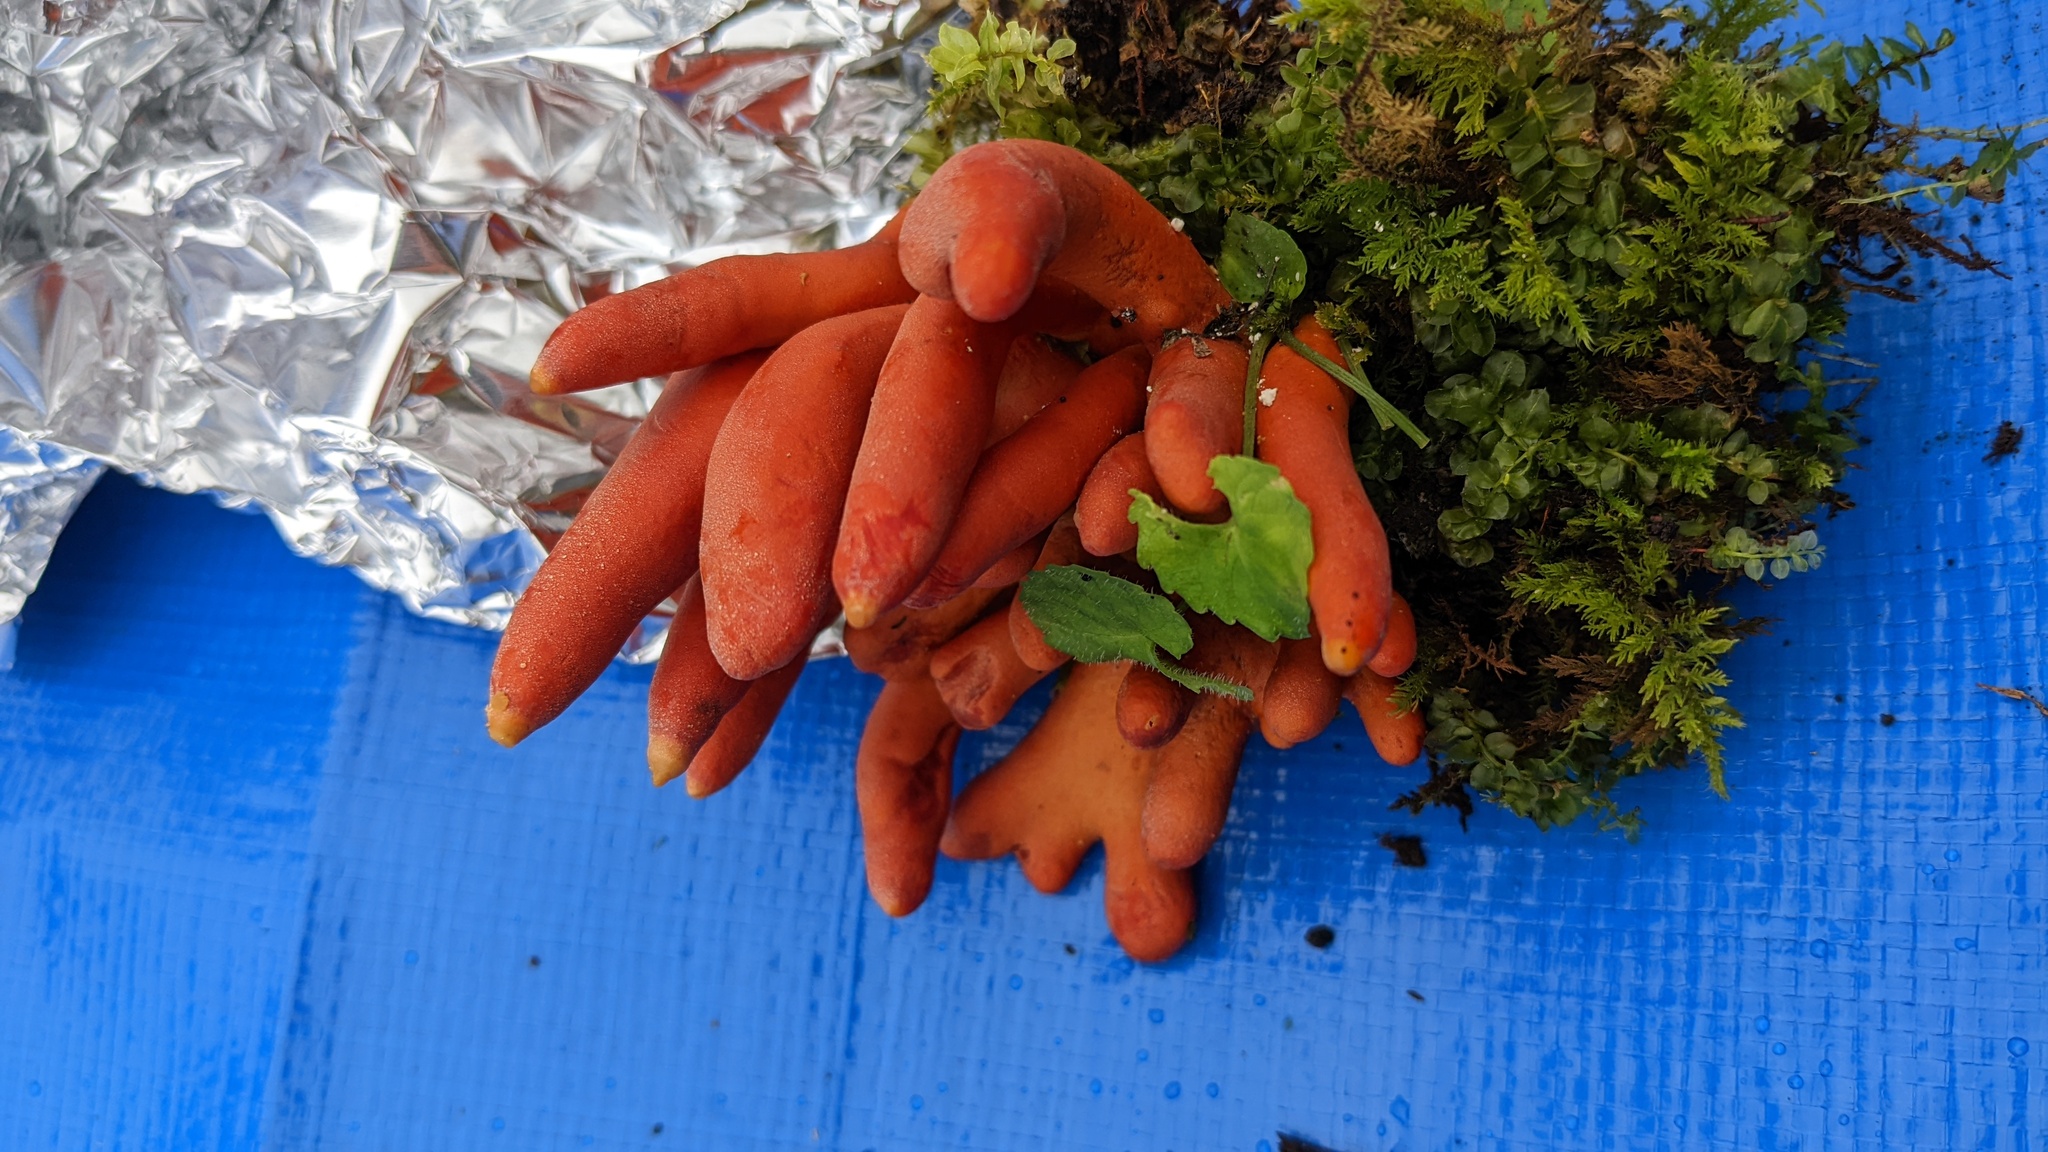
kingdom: Fungi
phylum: Ascomycota
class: Sordariomycetes
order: Hypocreales
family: Hypocreaceae
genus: Trichoderma
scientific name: Trichoderma cornu-damae
